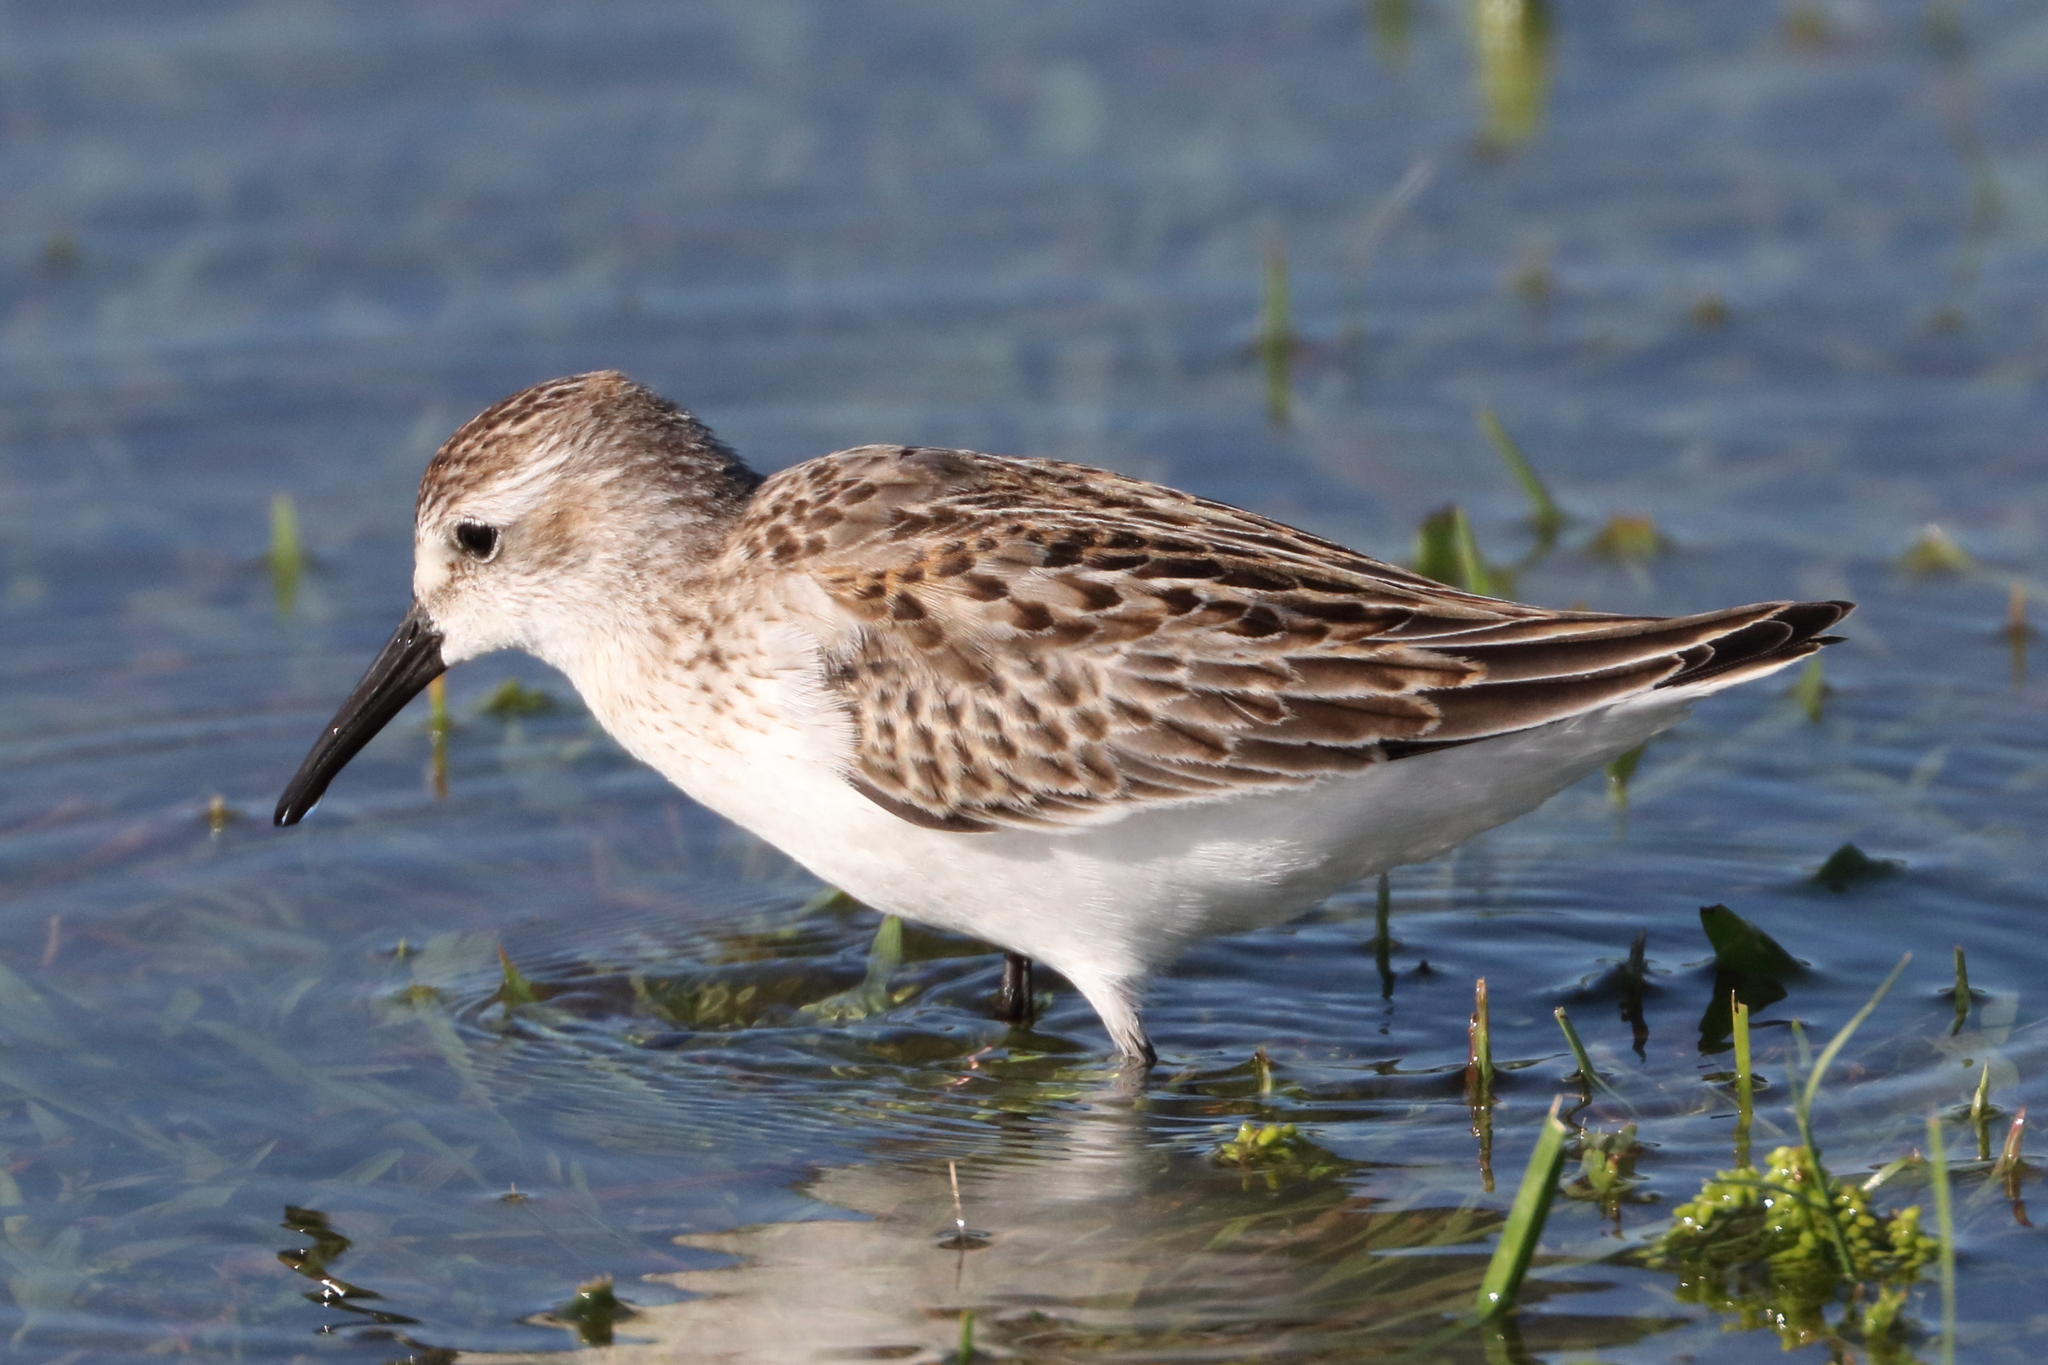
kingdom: Animalia
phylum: Chordata
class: Aves
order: Charadriiformes
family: Scolopacidae
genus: Calidris
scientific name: Calidris mauri
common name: Western sandpiper
